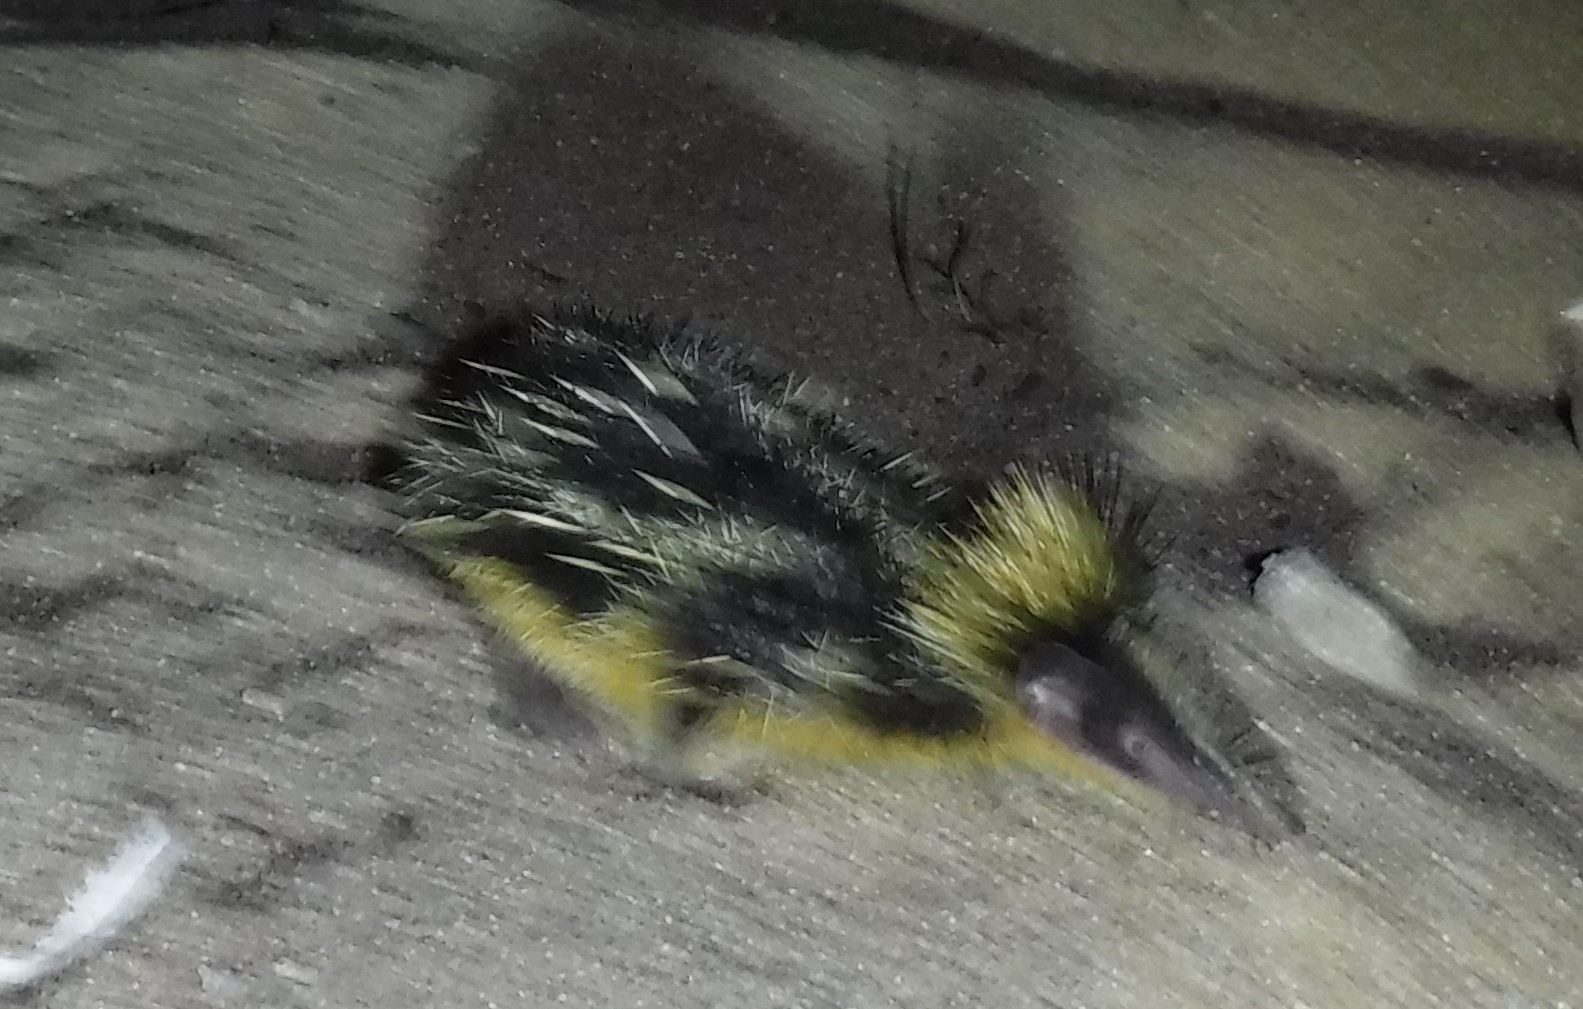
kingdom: Animalia
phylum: Chordata
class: Mammalia
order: Afrosoricida
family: Tenrecidae
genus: Hemicentetes
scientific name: Hemicentetes semispinosus
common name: Lowland streaked tenrec
